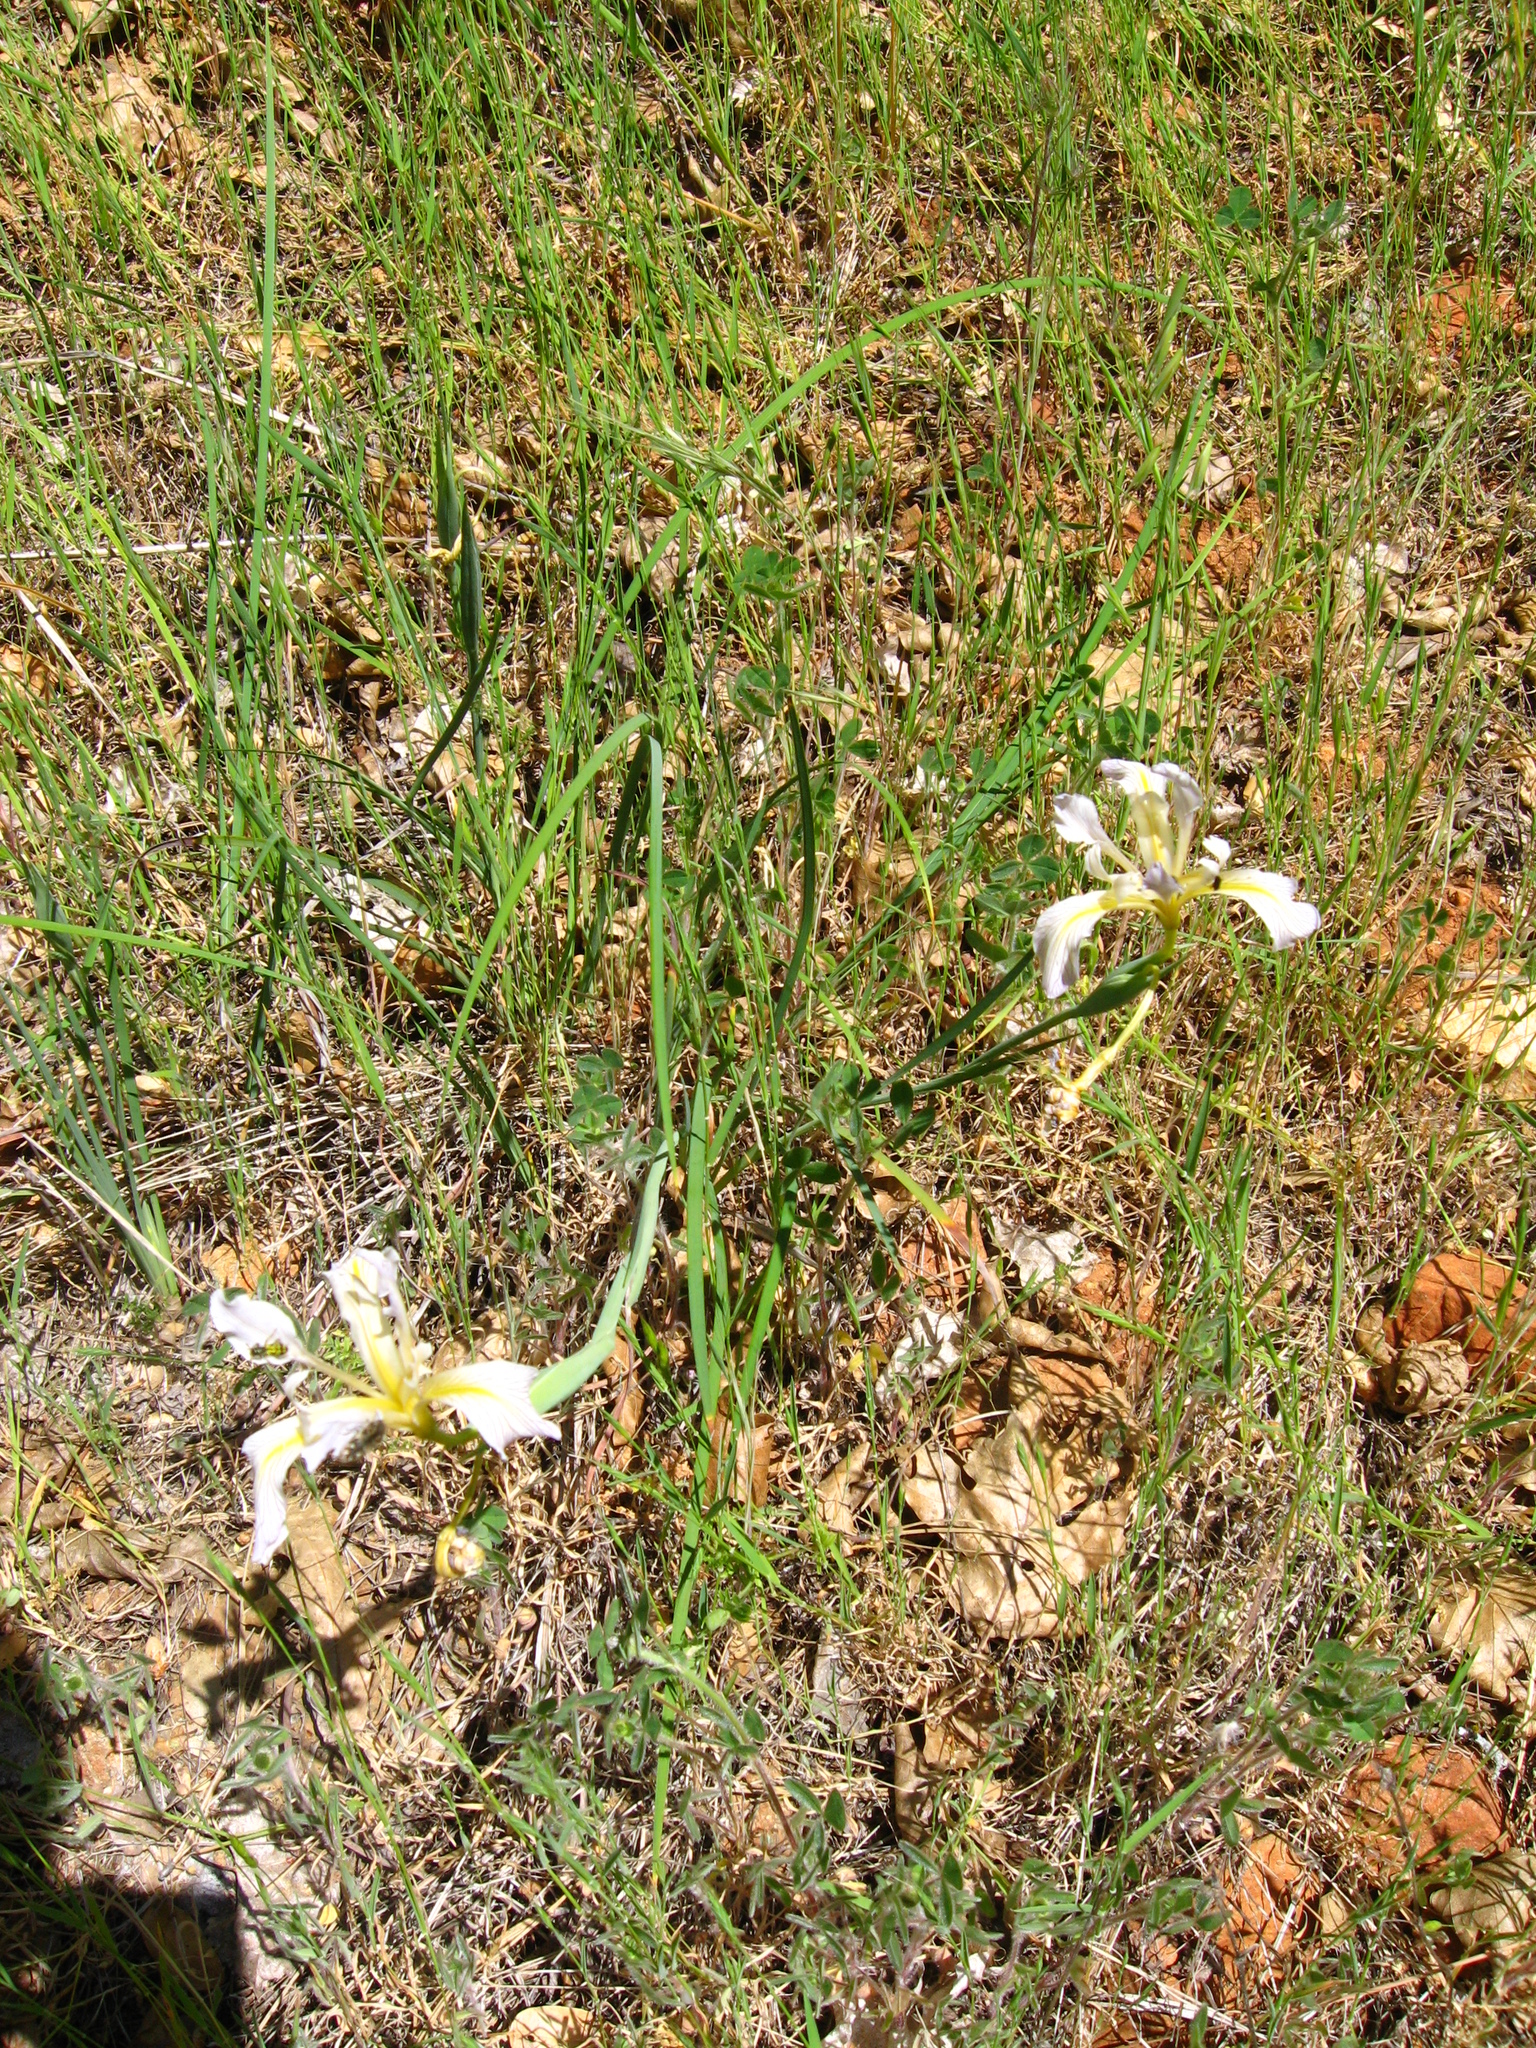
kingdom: Plantae
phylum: Tracheophyta
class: Liliopsida
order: Asparagales
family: Iridaceae
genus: Iris
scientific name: Iris macrosiphon
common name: Ground iris
